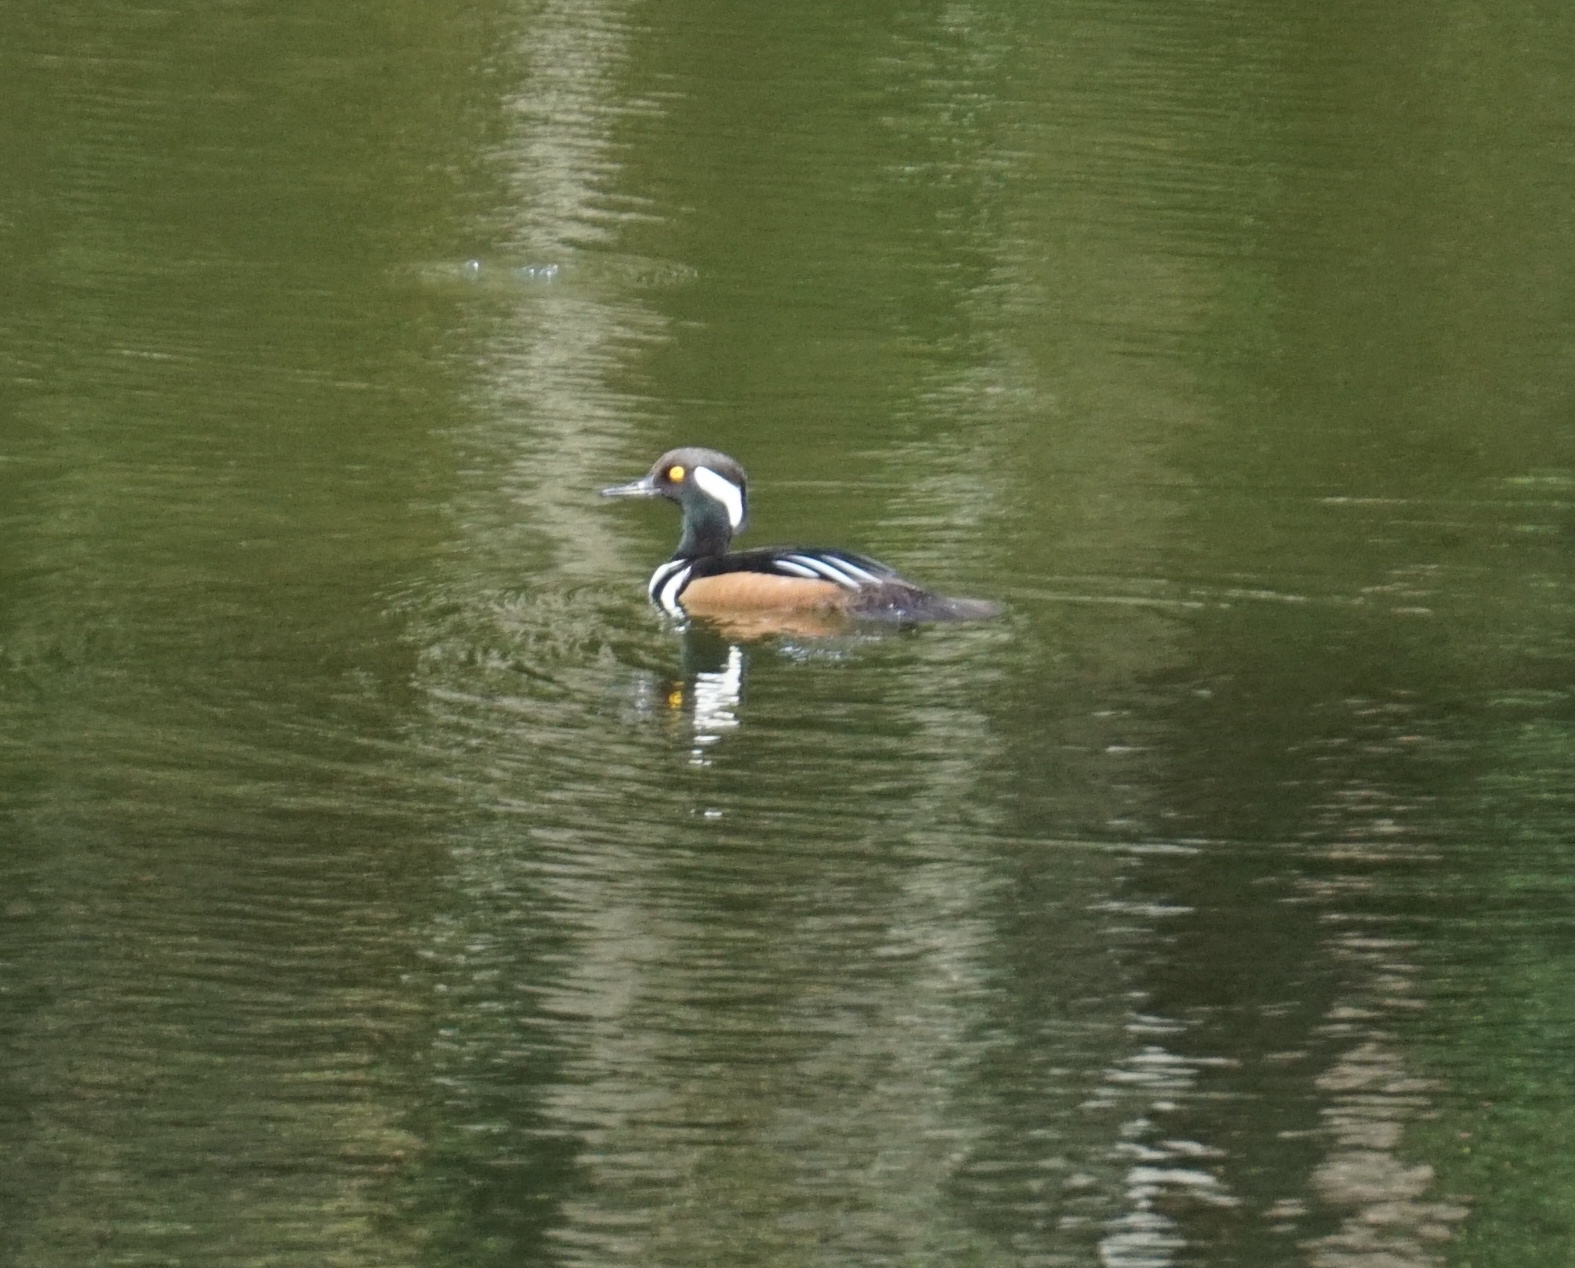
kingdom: Animalia
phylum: Chordata
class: Aves
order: Anseriformes
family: Anatidae
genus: Lophodytes
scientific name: Lophodytes cucullatus
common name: Hooded merganser
